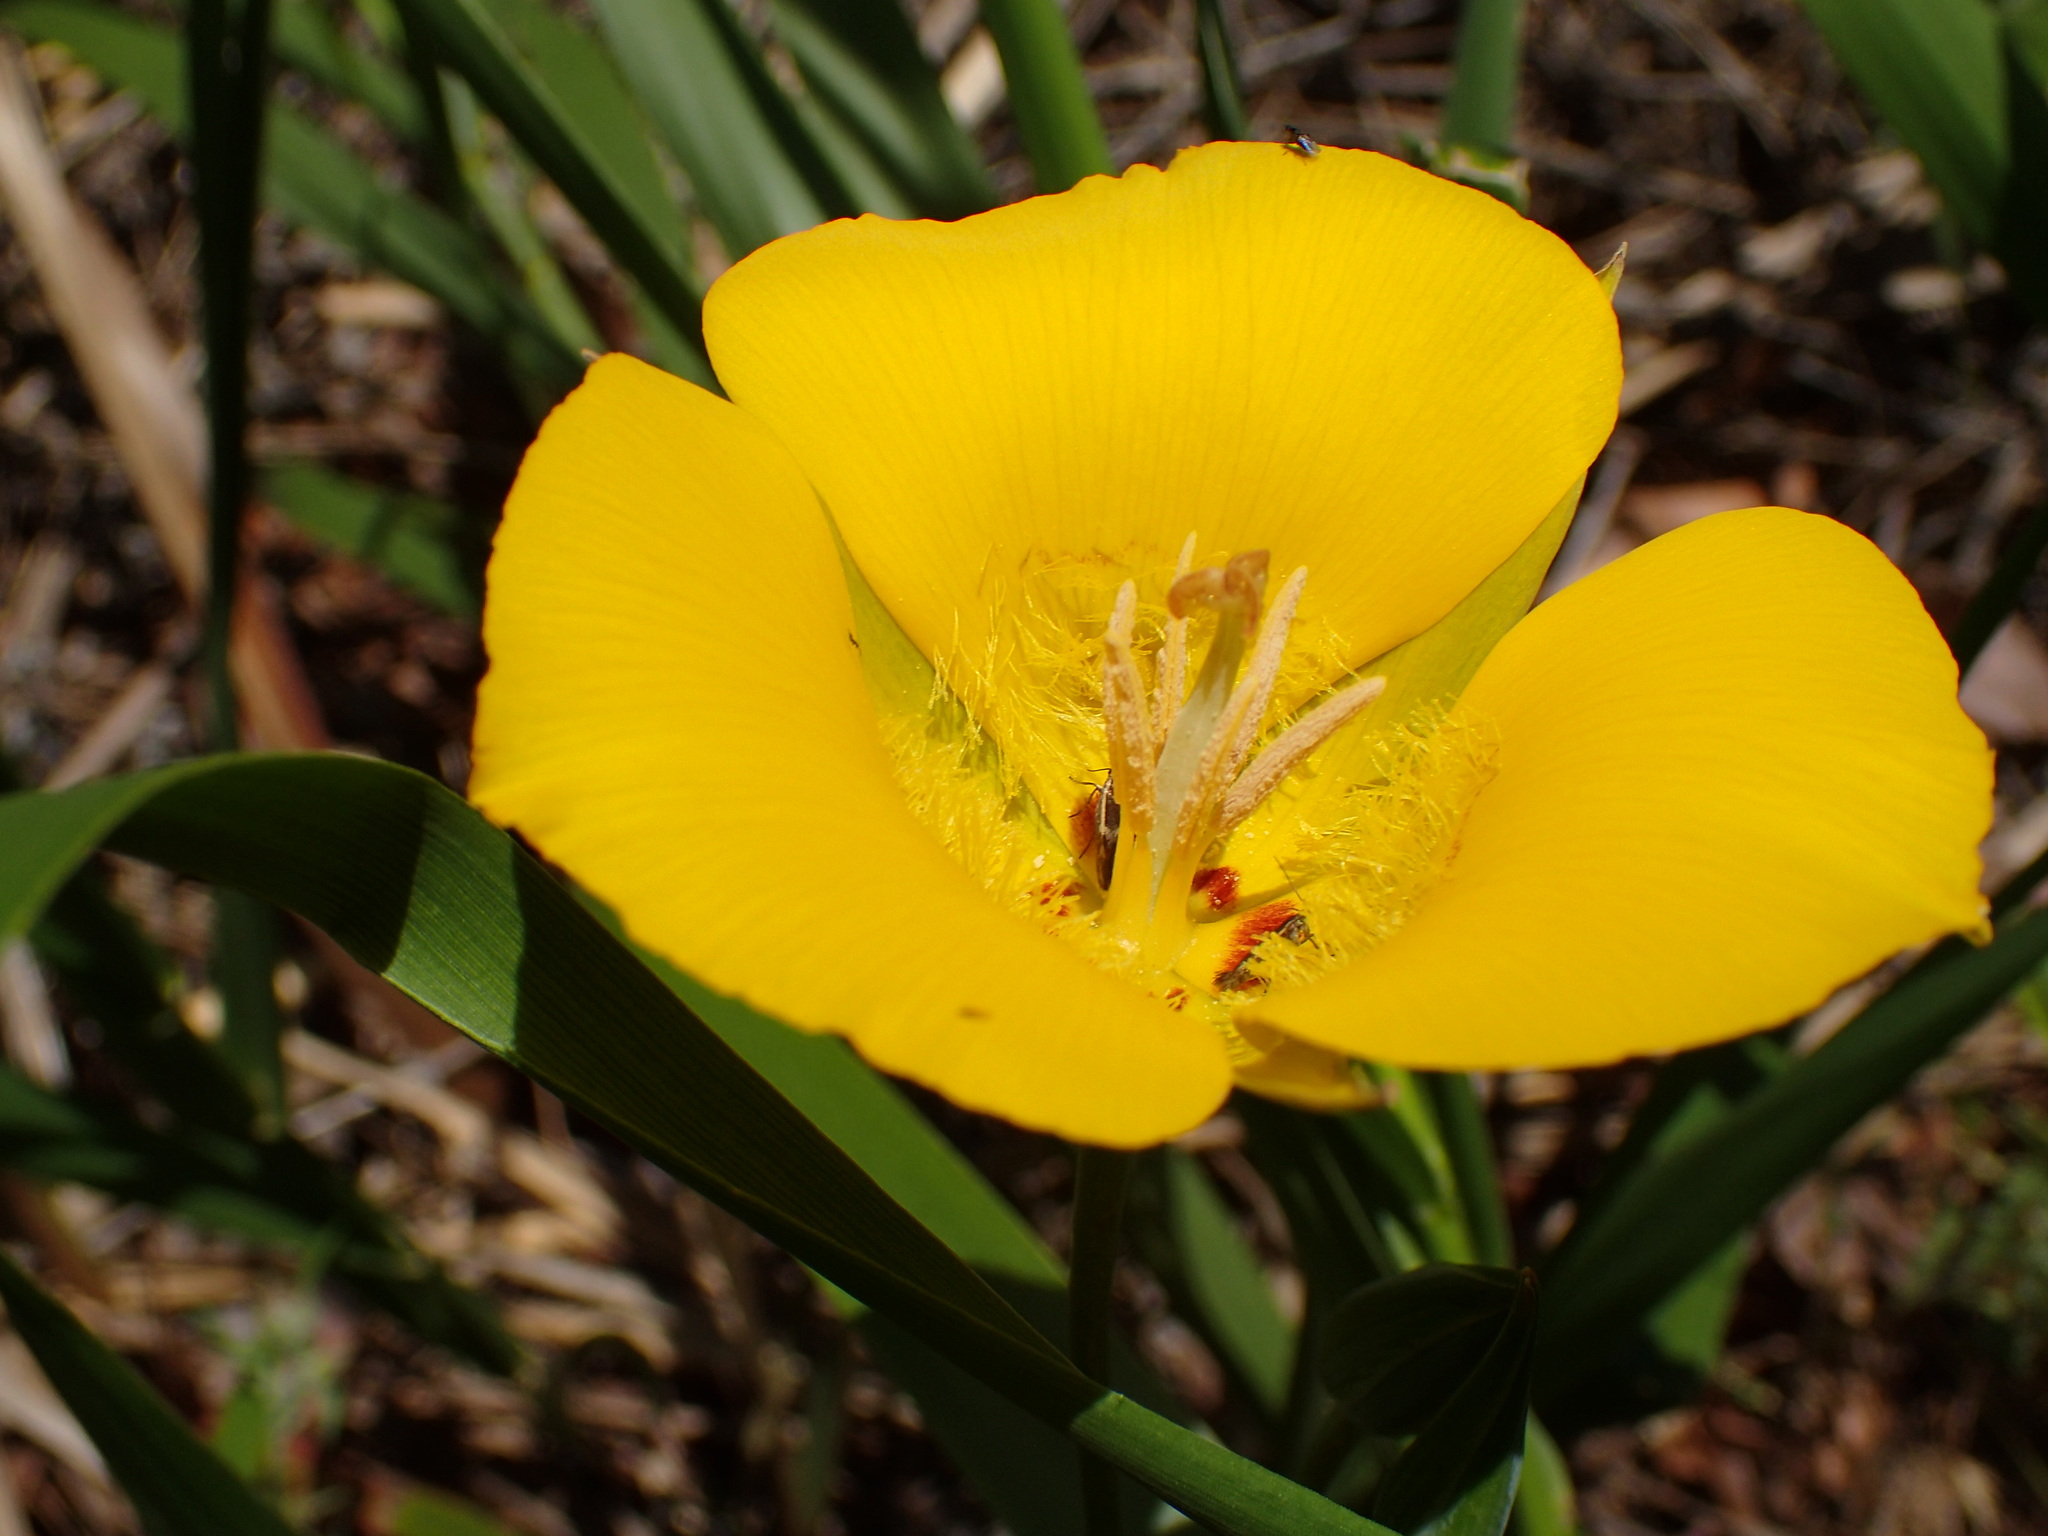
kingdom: Plantae
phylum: Tracheophyta
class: Liliopsida
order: Liliales
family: Liliaceae
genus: Calochortus
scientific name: Calochortus clavatus
